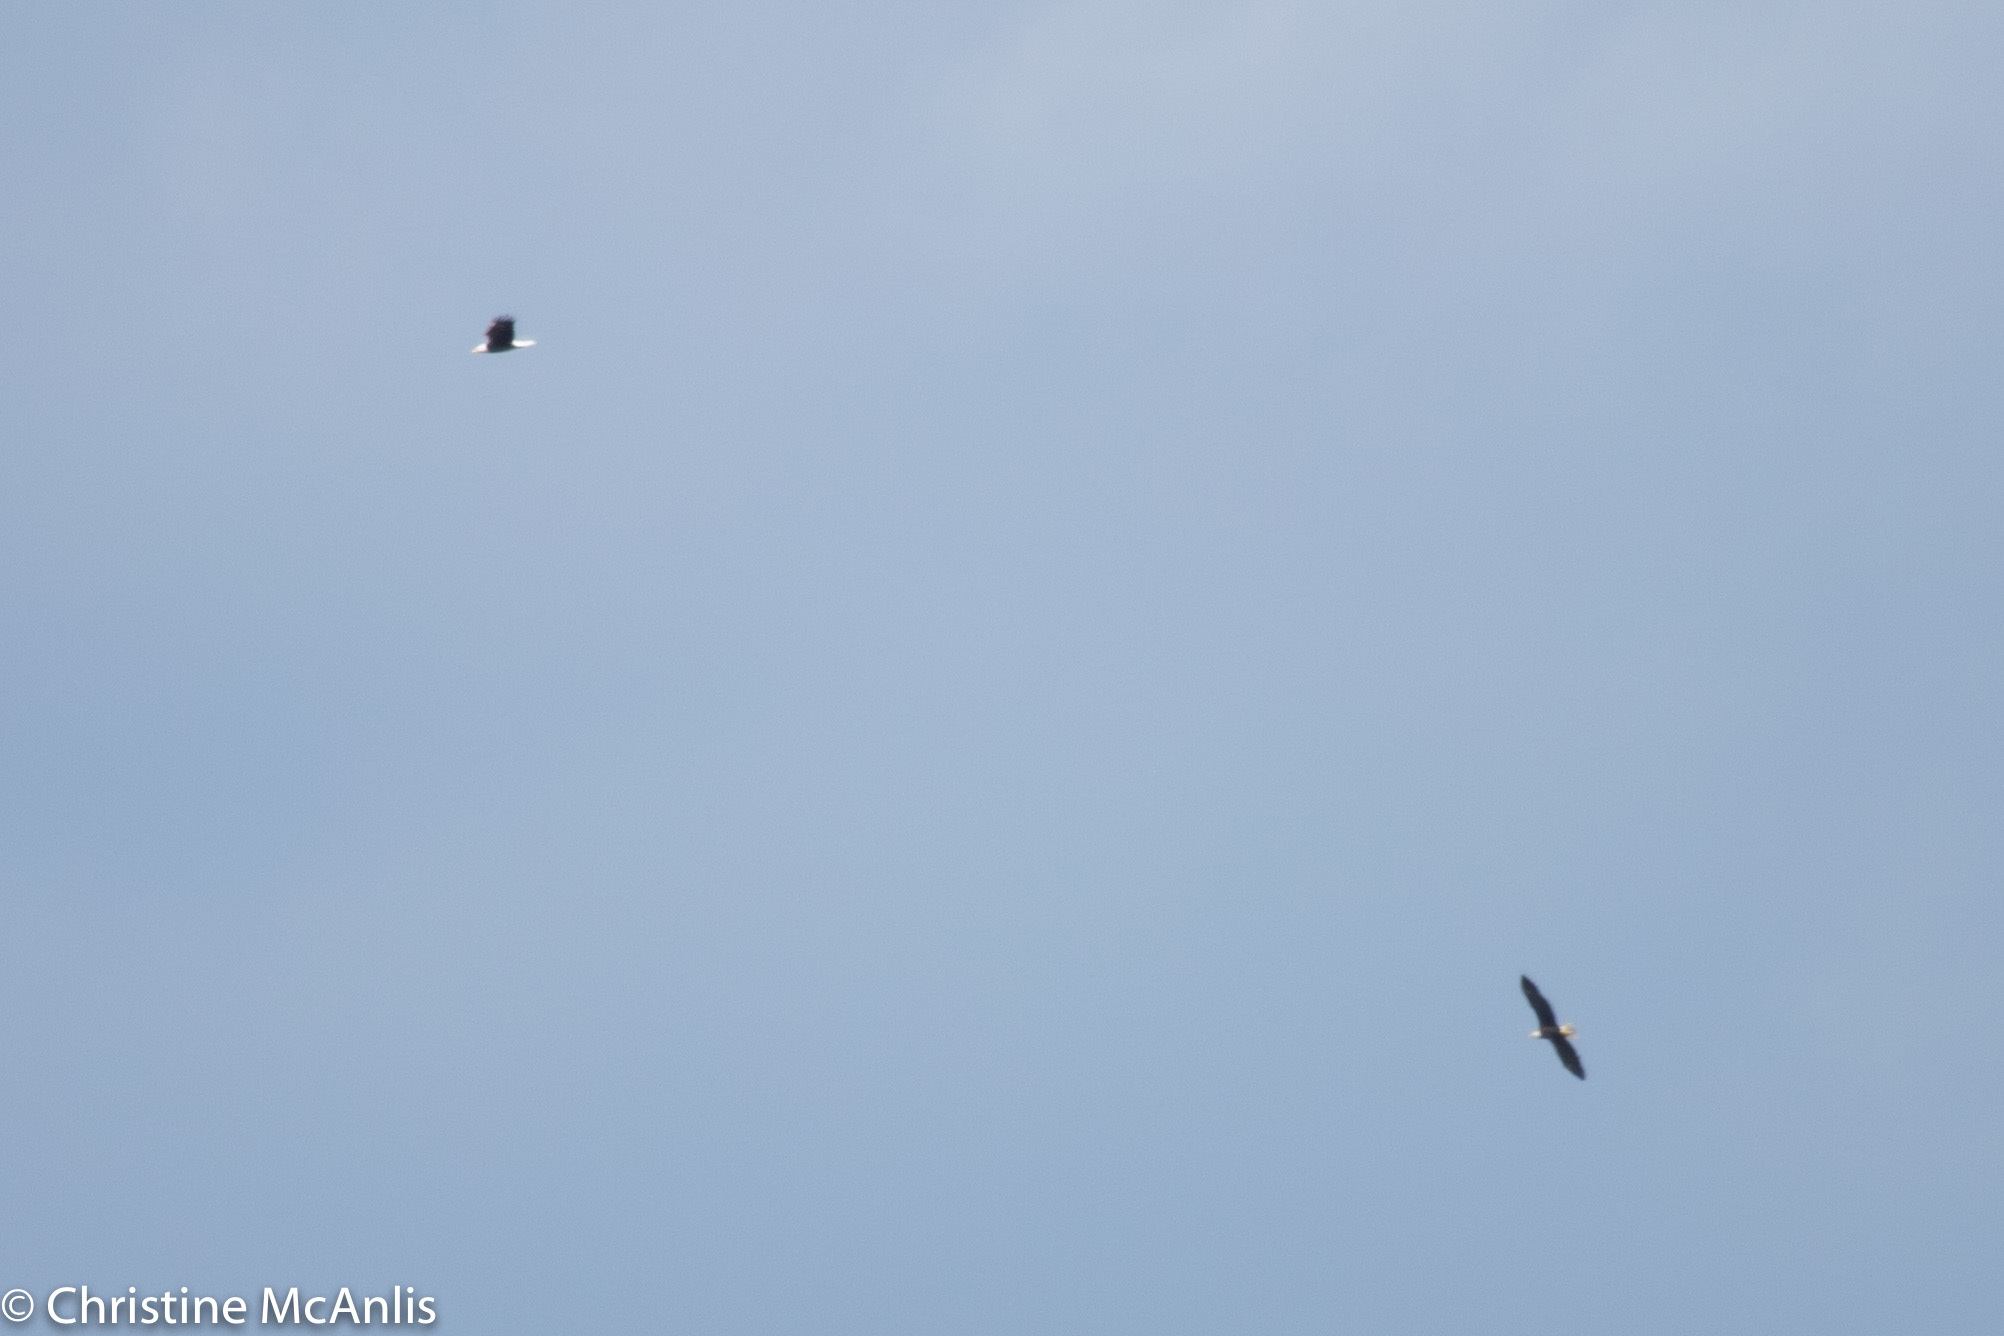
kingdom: Animalia
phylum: Chordata
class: Aves
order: Accipitriformes
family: Accipitridae
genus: Haliaeetus
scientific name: Haliaeetus leucocephalus
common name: Bald eagle
